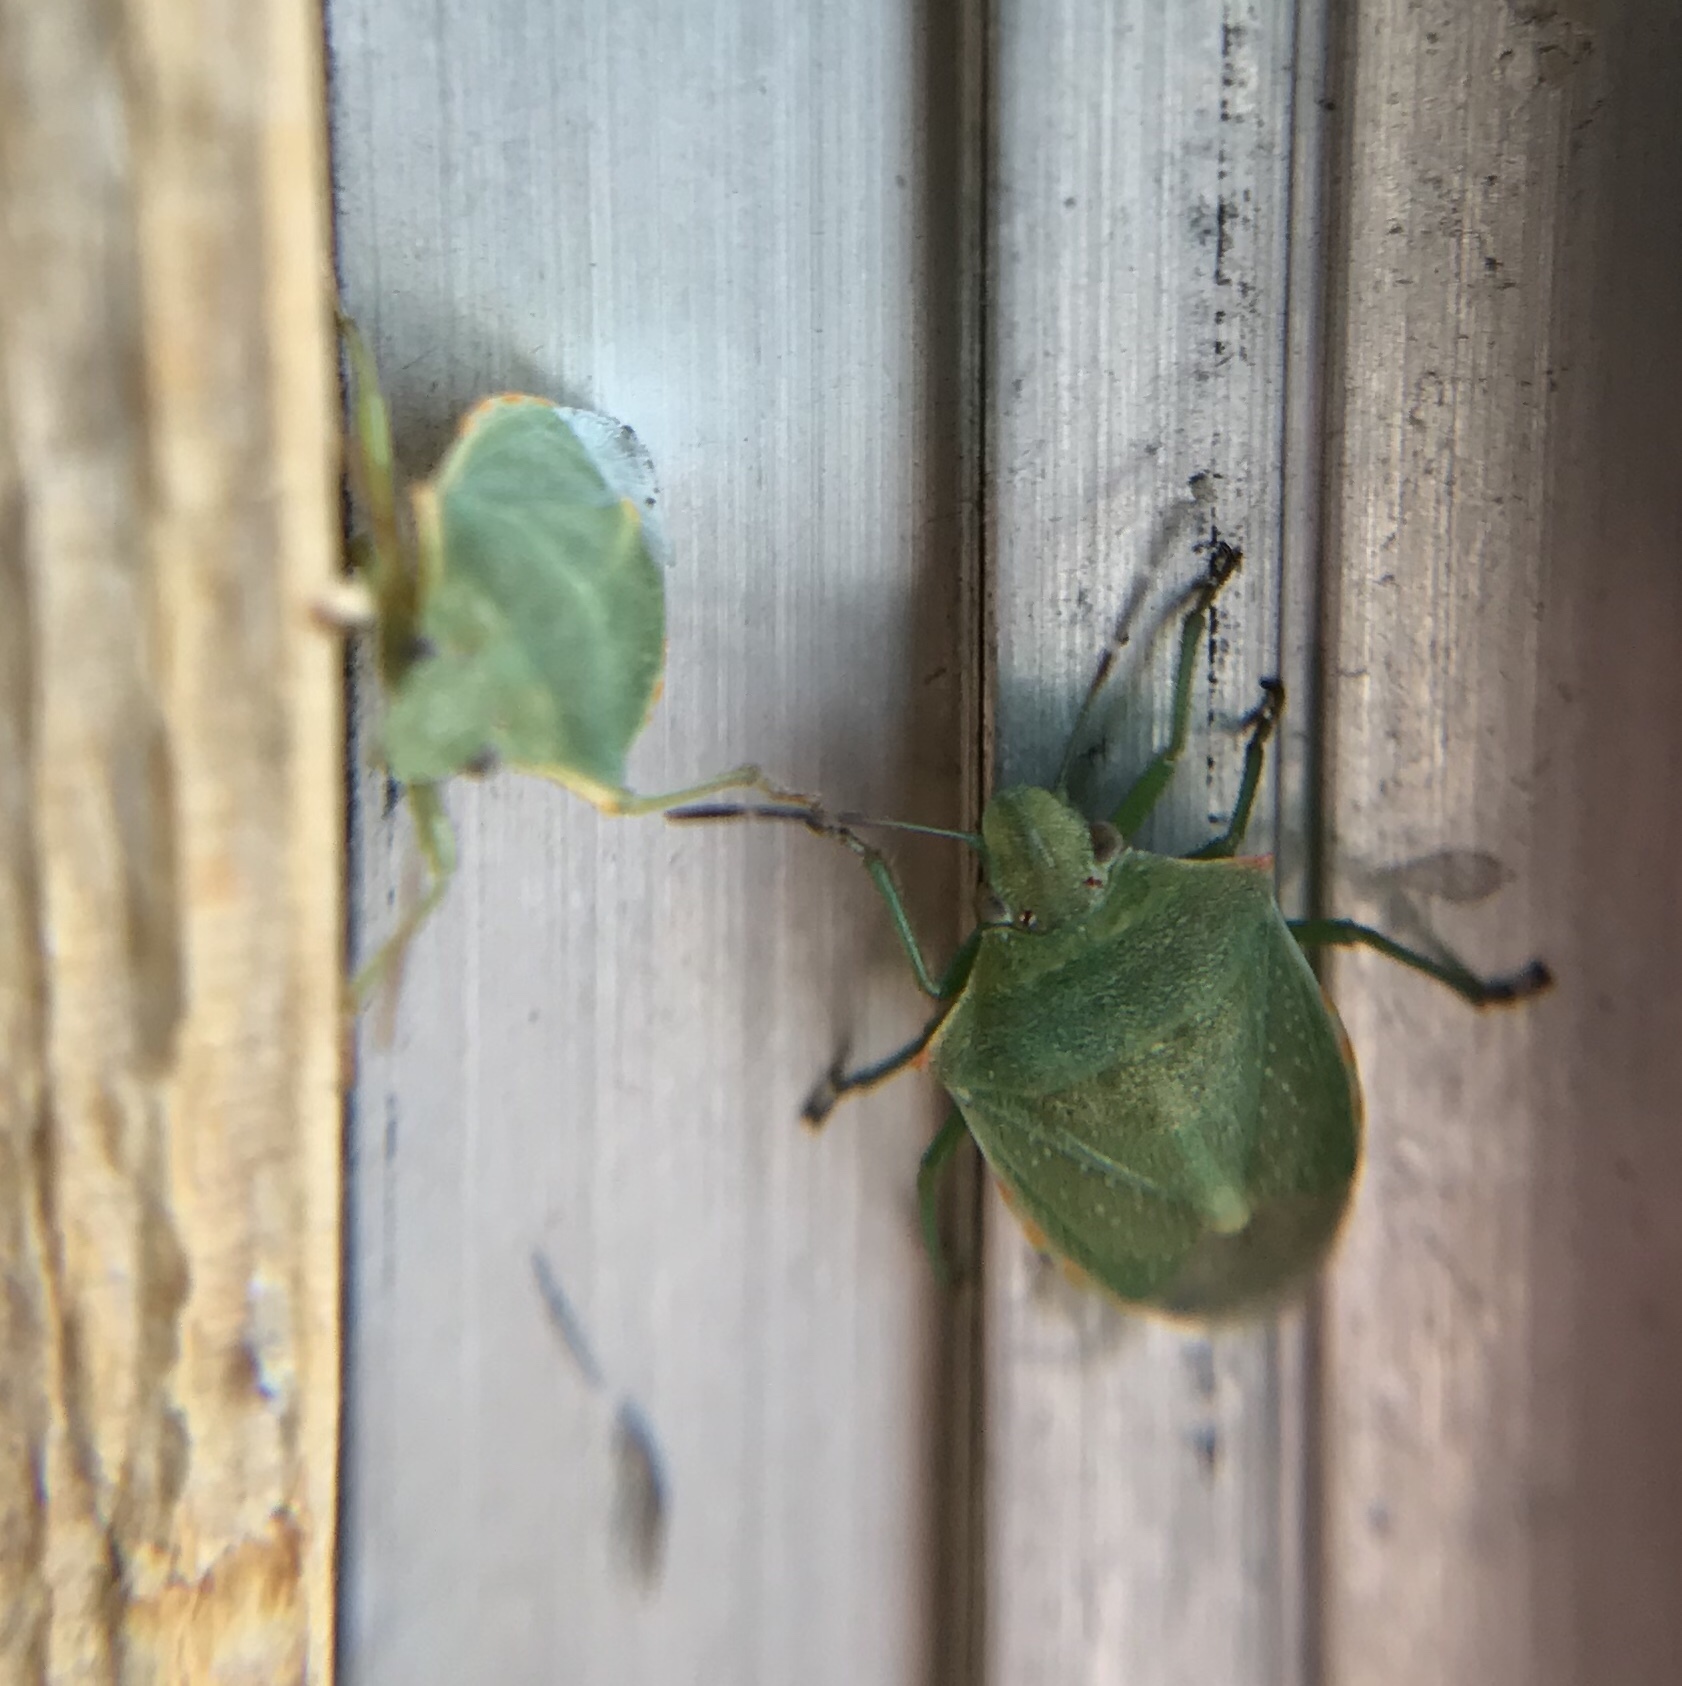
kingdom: Animalia
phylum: Arthropoda
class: Insecta
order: Hemiptera
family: Pentatomidae
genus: Thyanta
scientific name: Thyanta custator
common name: Stink bug
